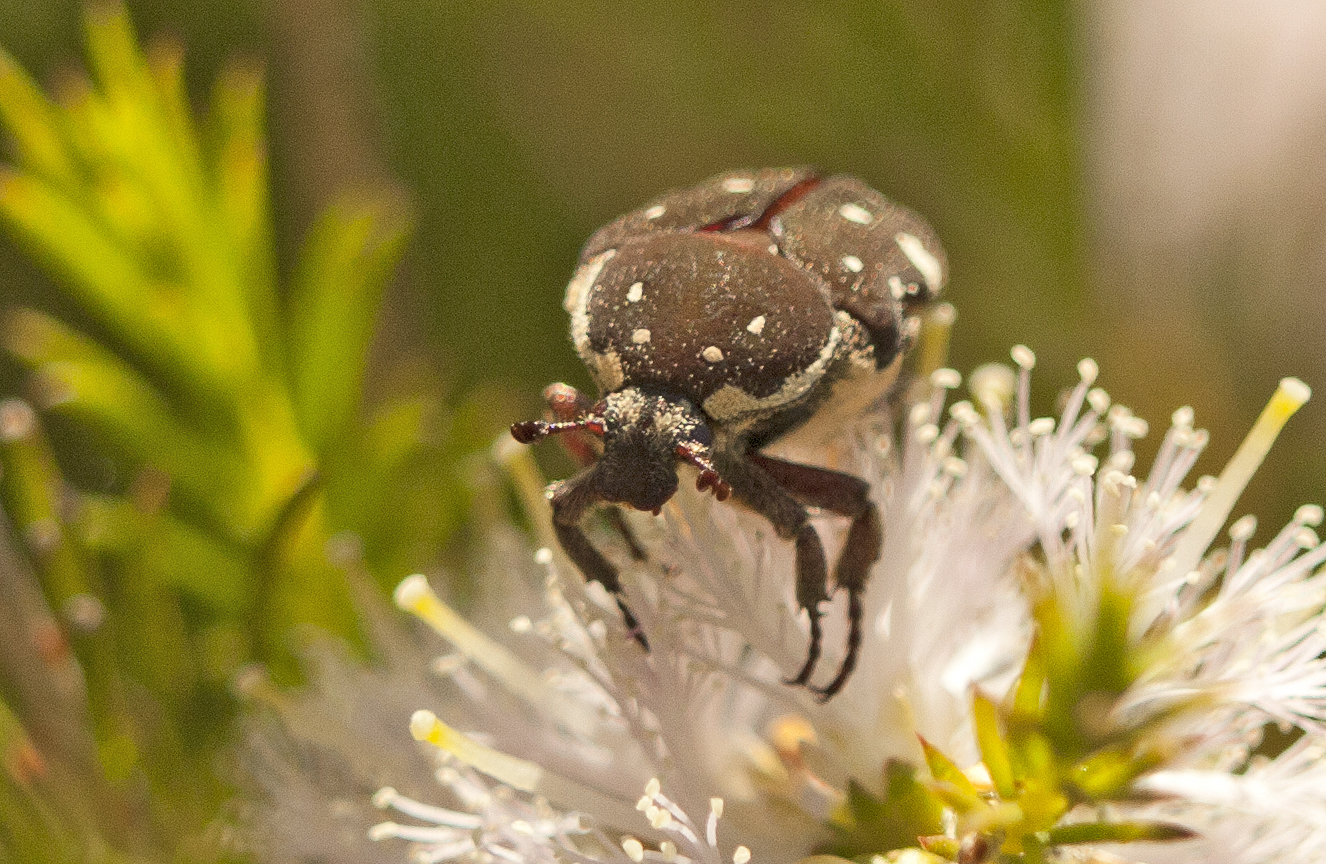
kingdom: Animalia
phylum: Arthropoda
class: Insecta
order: Coleoptera
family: Scarabaeidae
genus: Glycyphana
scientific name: Glycyphana stolata
